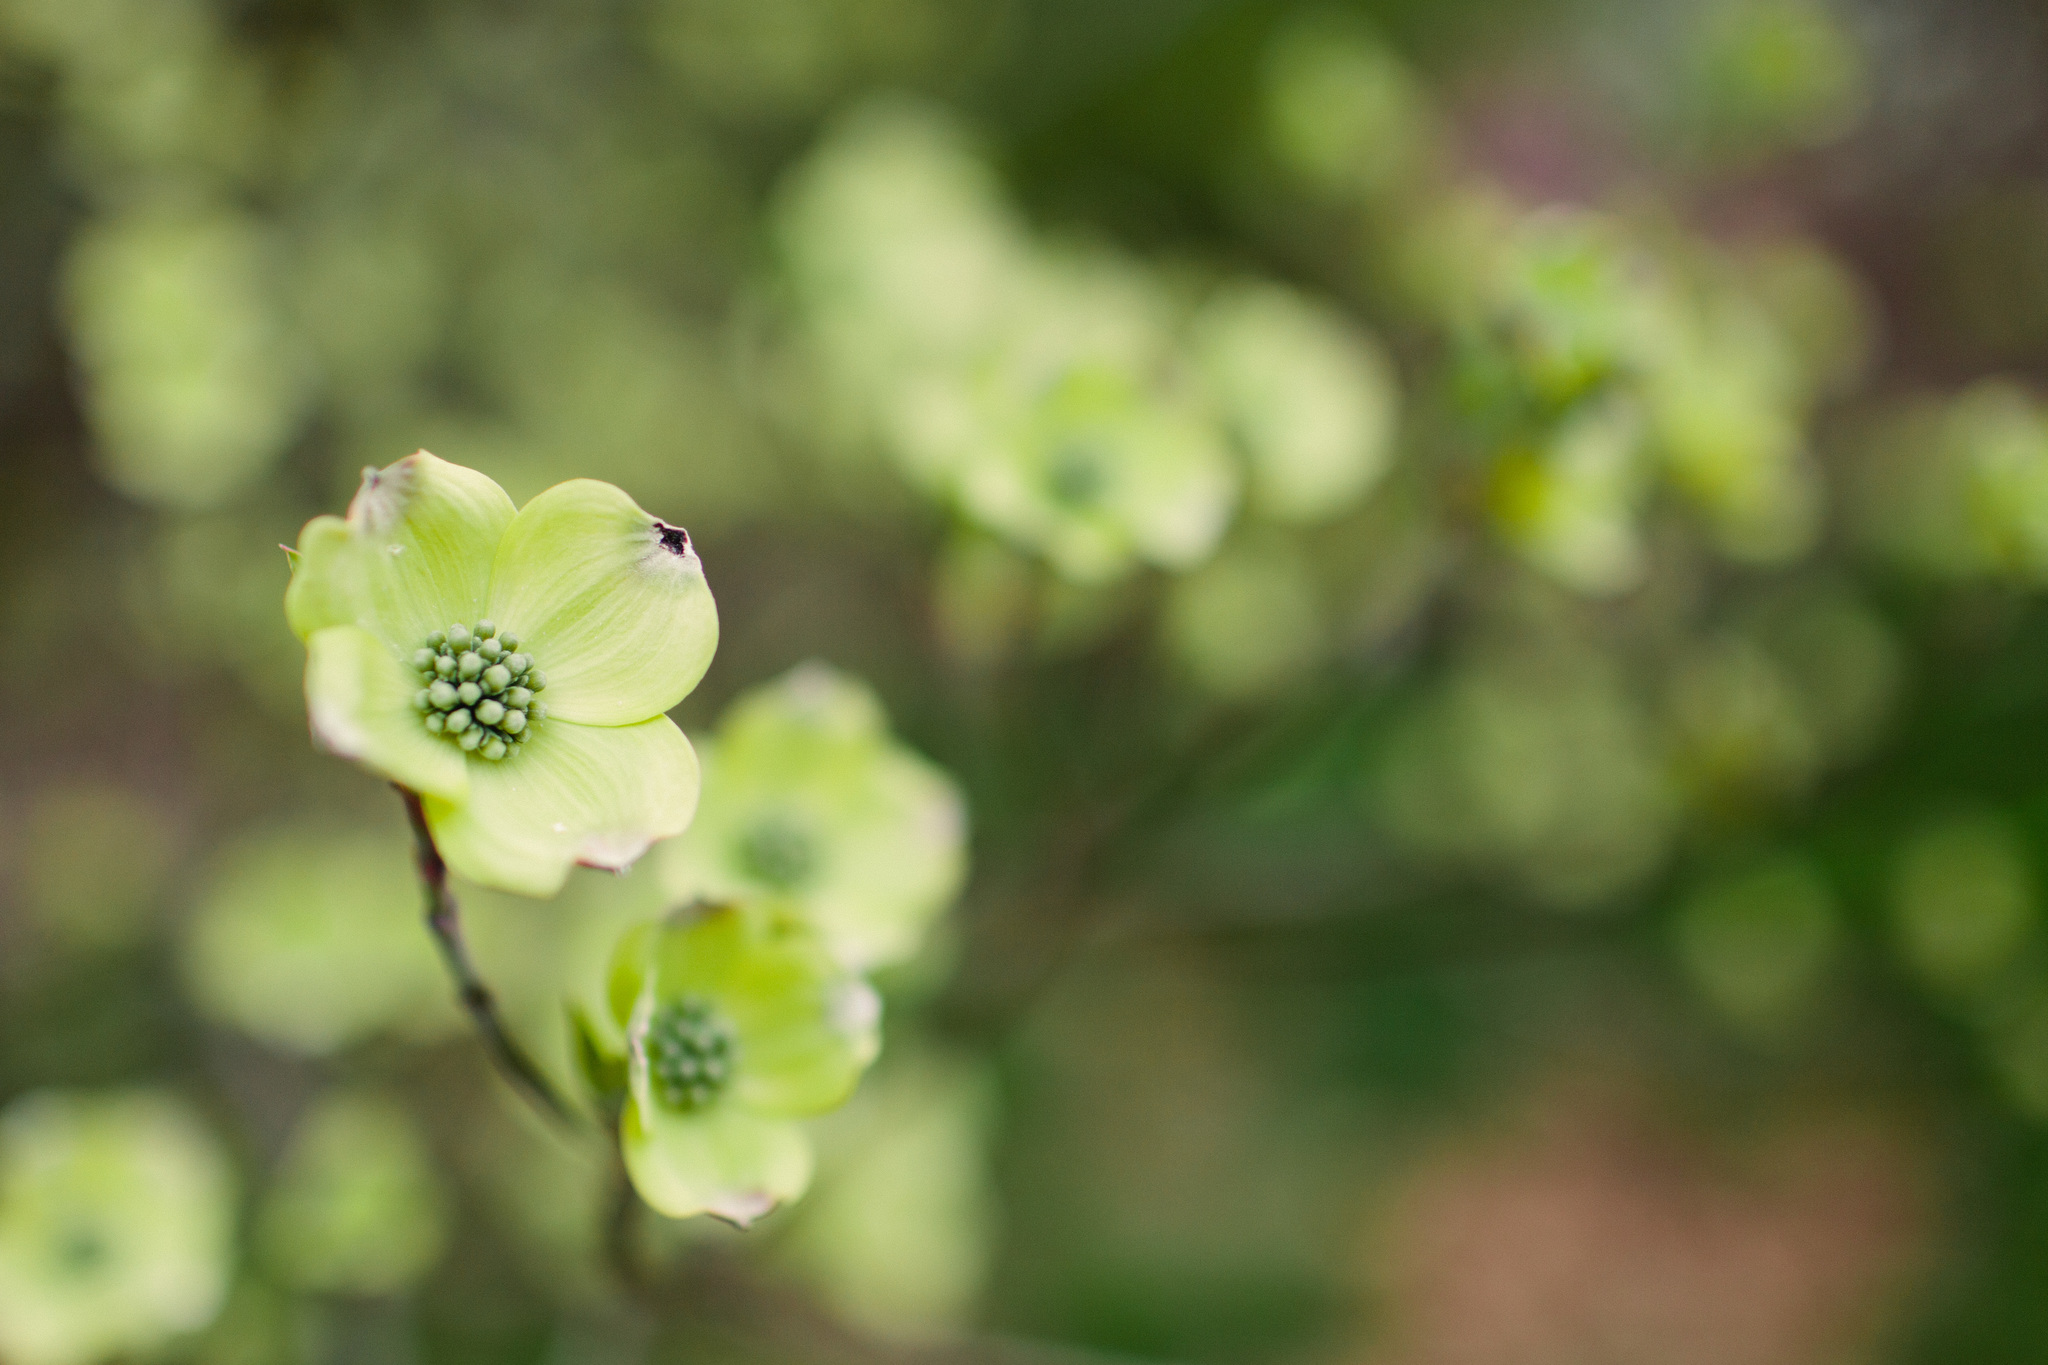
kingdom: Plantae
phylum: Tracheophyta
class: Magnoliopsida
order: Cornales
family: Cornaceae
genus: Cornus
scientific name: Cornus florida
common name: Flowering dogwood
